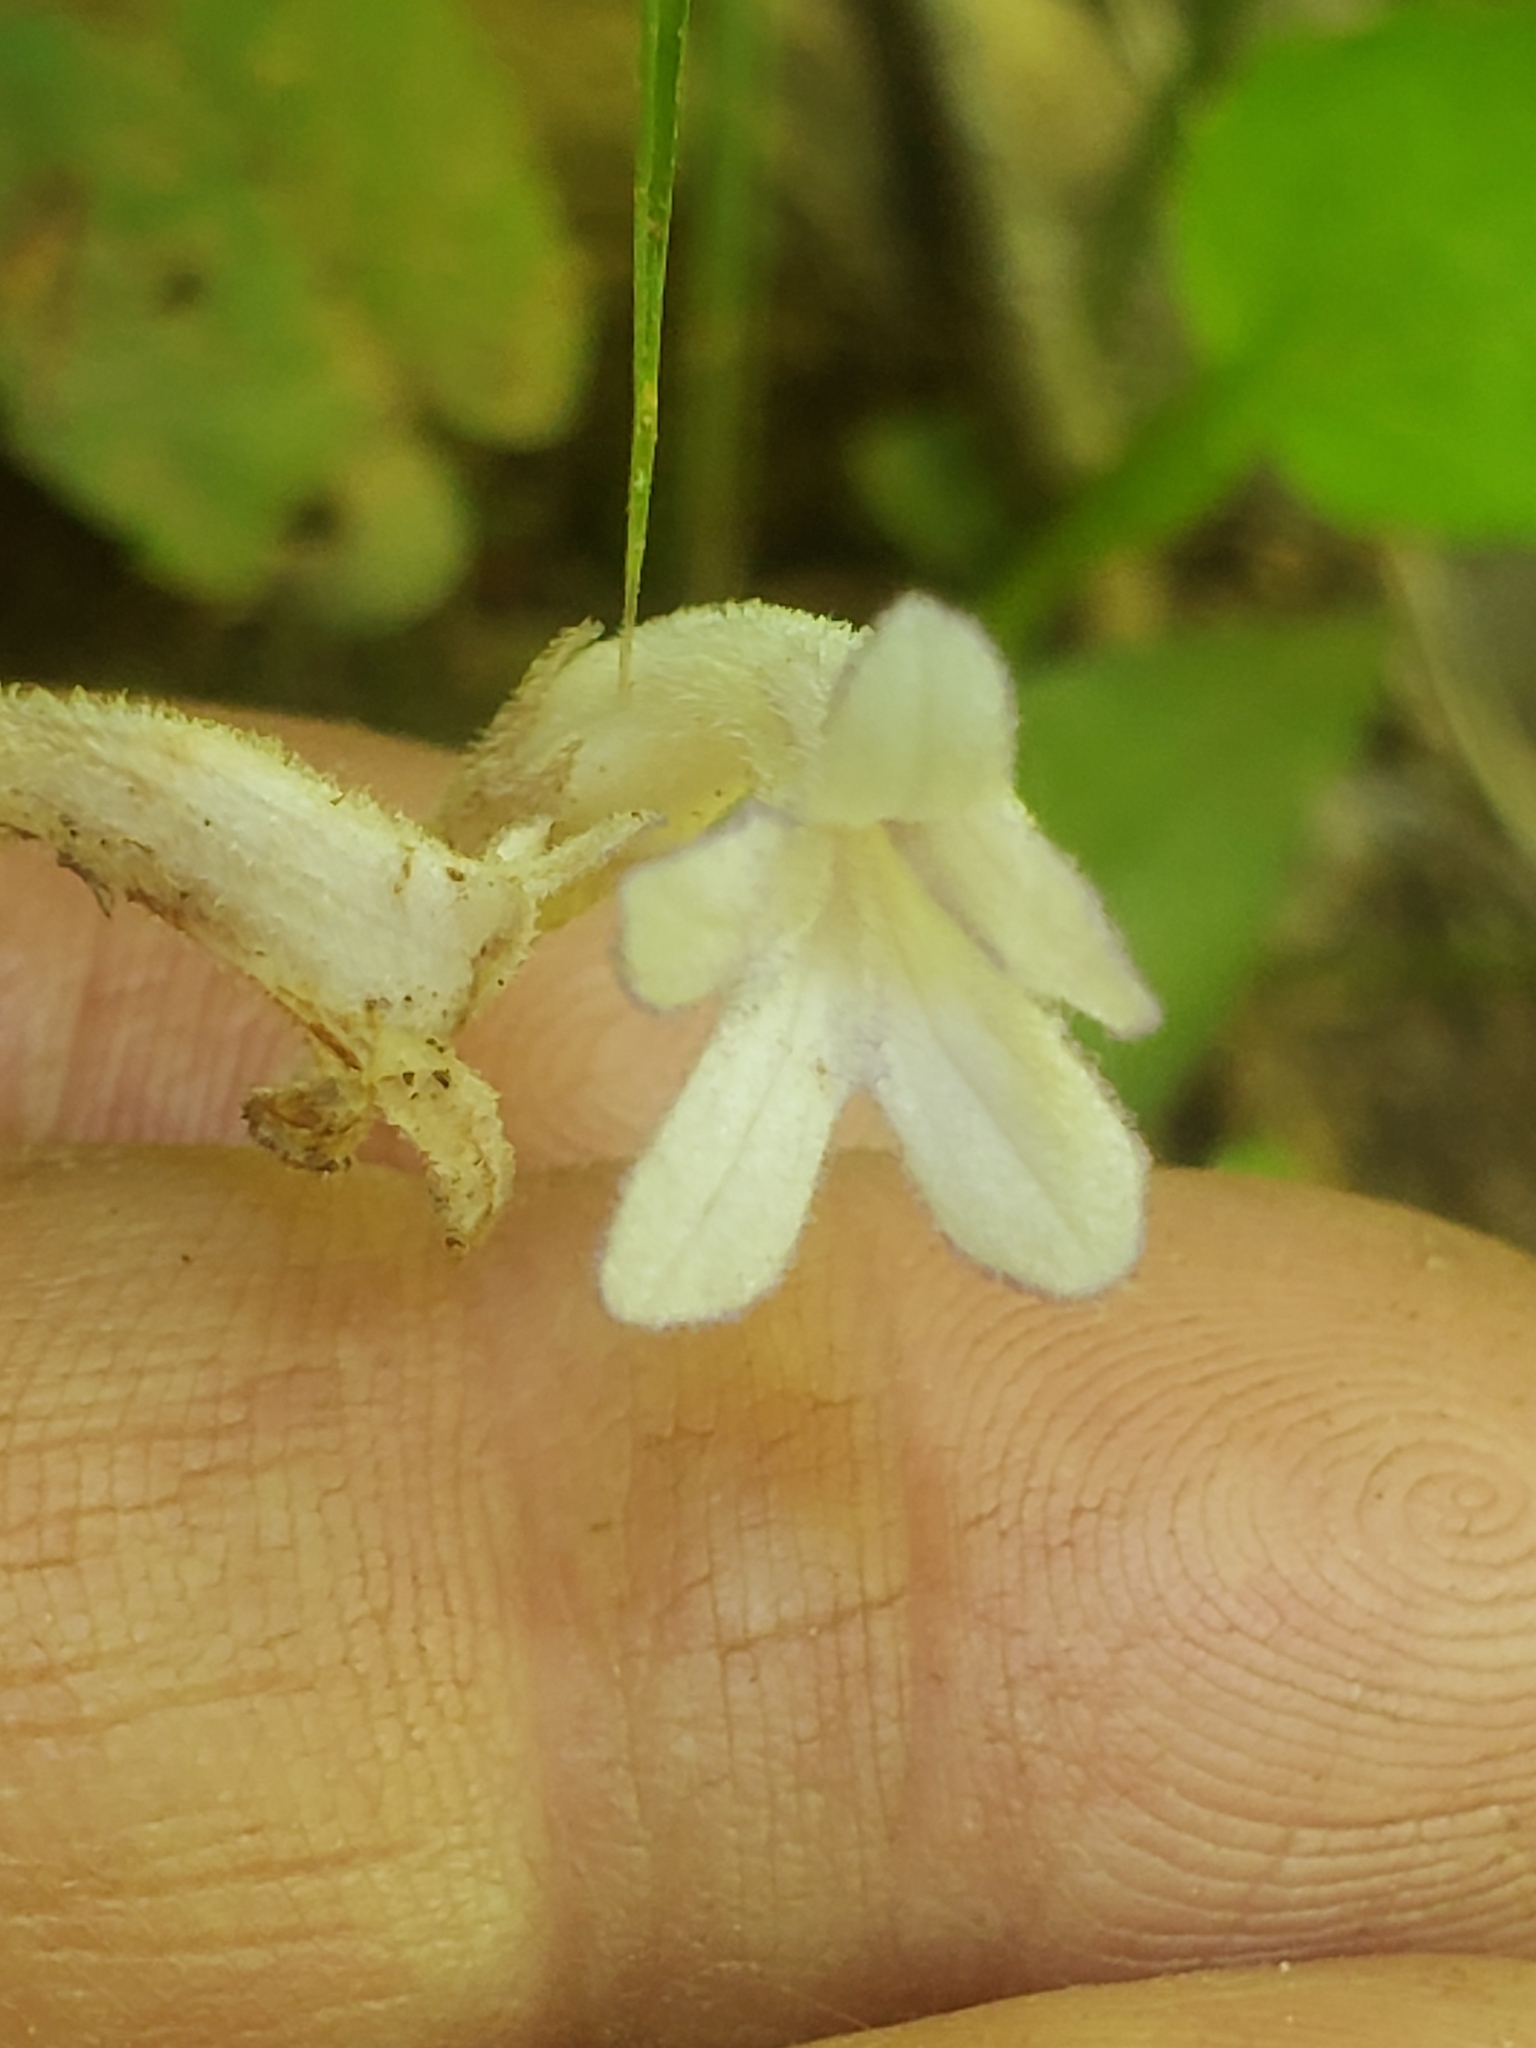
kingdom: Plantae
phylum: Tracheophyta
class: Magnoliopsida
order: Lamiales
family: Orobanchaceae
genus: Aphyllon
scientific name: Aphyllon uniflorum
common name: One-flowered broomrape
